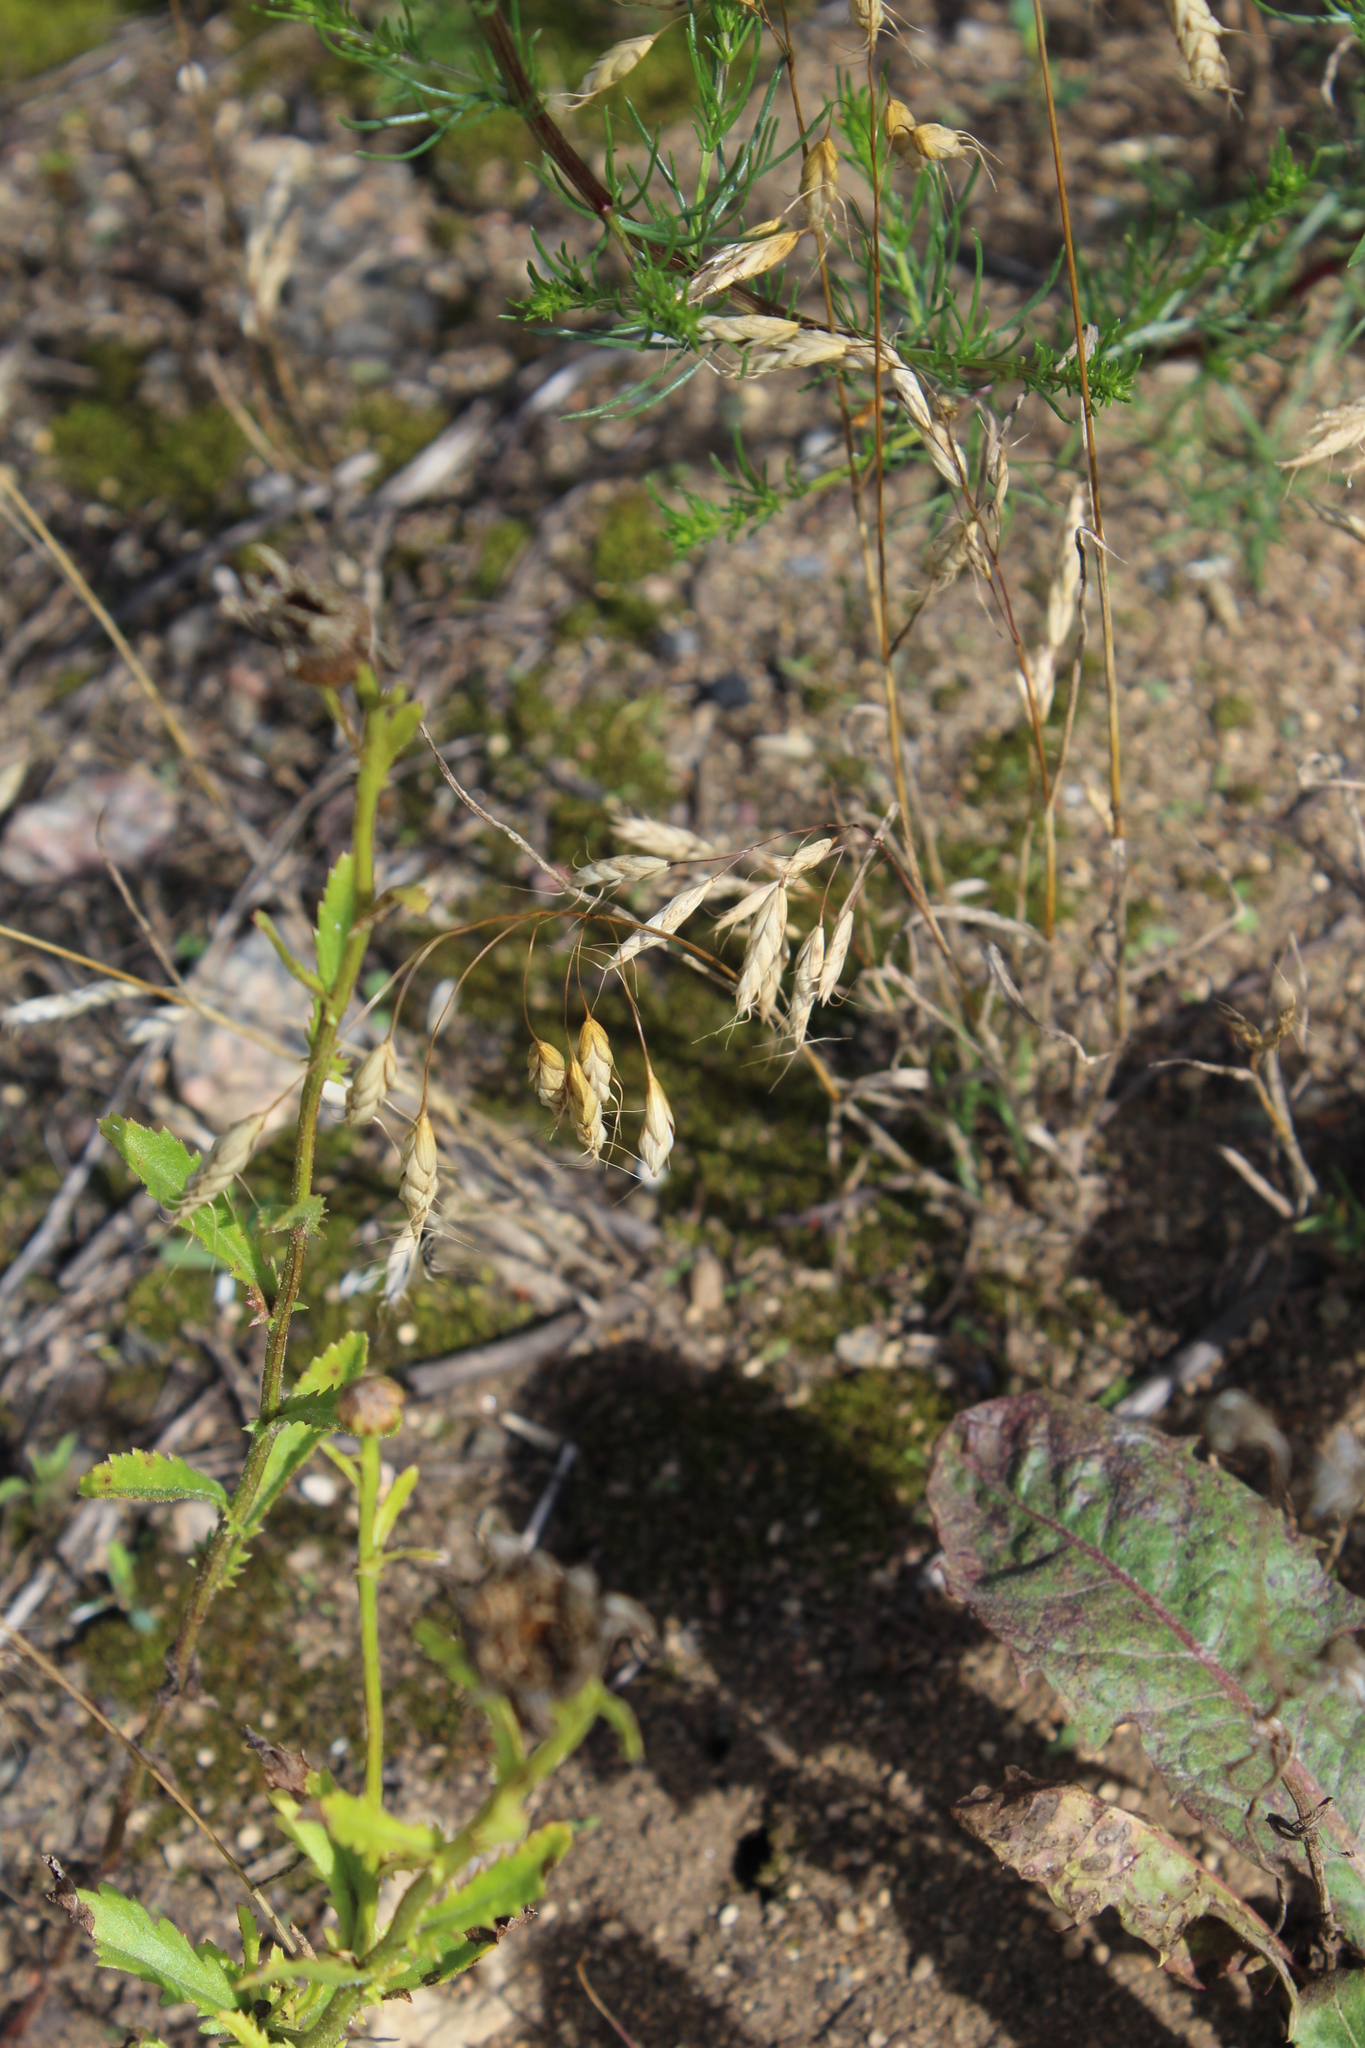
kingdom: Plantae
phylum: Tracheophyta
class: Liliopsida
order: Poales
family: Poaceae
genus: Bromus
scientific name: Bromus squarrosus
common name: Corn brome
